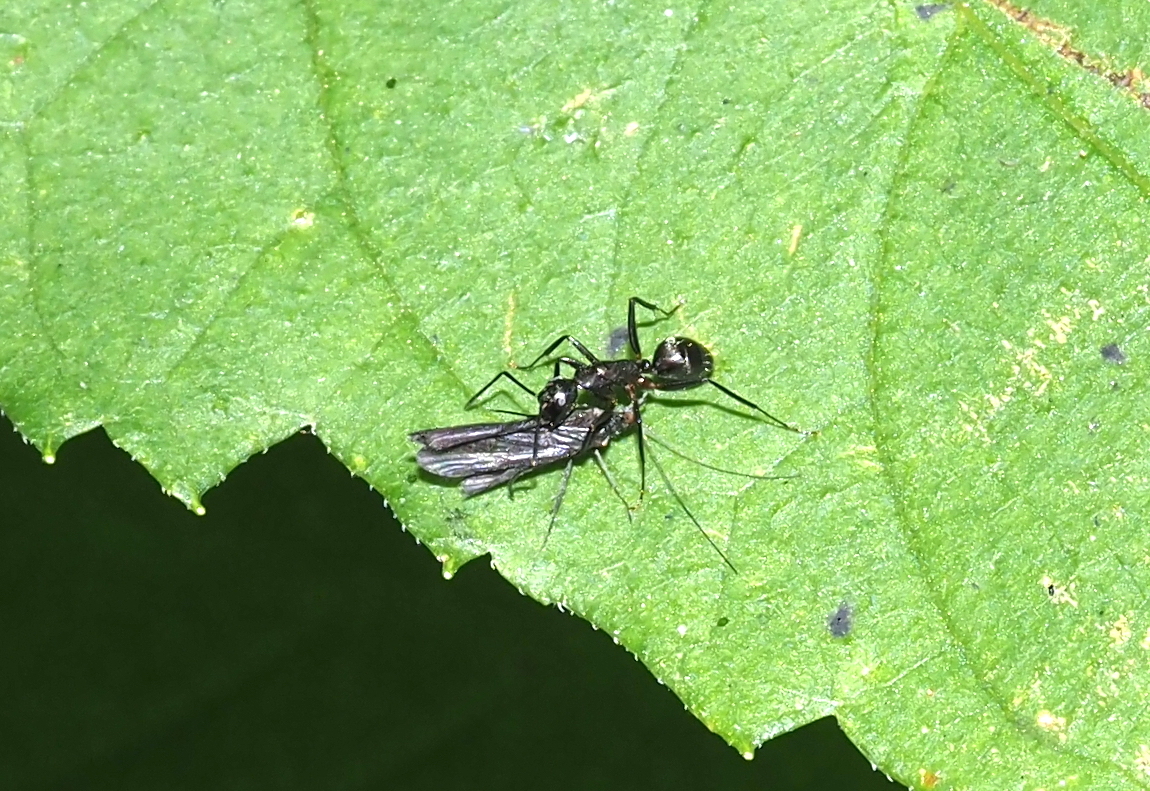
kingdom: Animalia
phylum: Arthropoda
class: Insecta
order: Hymenoptera
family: Formicidae
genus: Camponotus
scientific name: Camponotus pennsylvanicus
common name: Black carpenter ant
